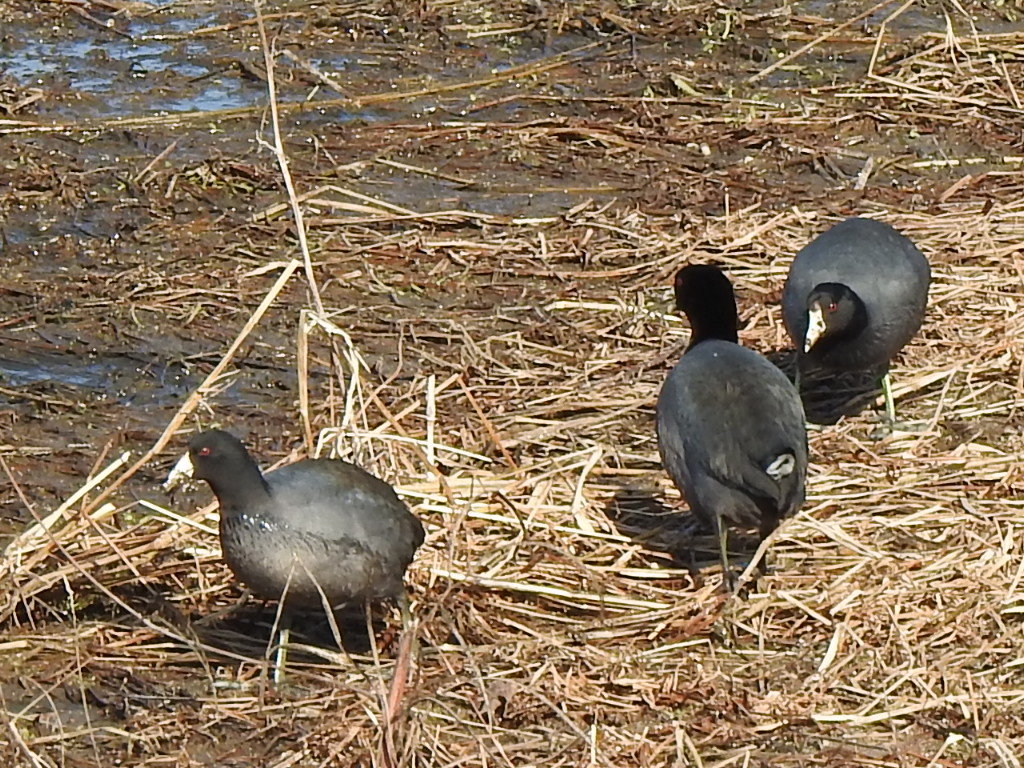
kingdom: Animalia
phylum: Chordata
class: Aves
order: Gruiformes
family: Rallidae
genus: Fulica
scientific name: Fulica americana
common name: American coot
